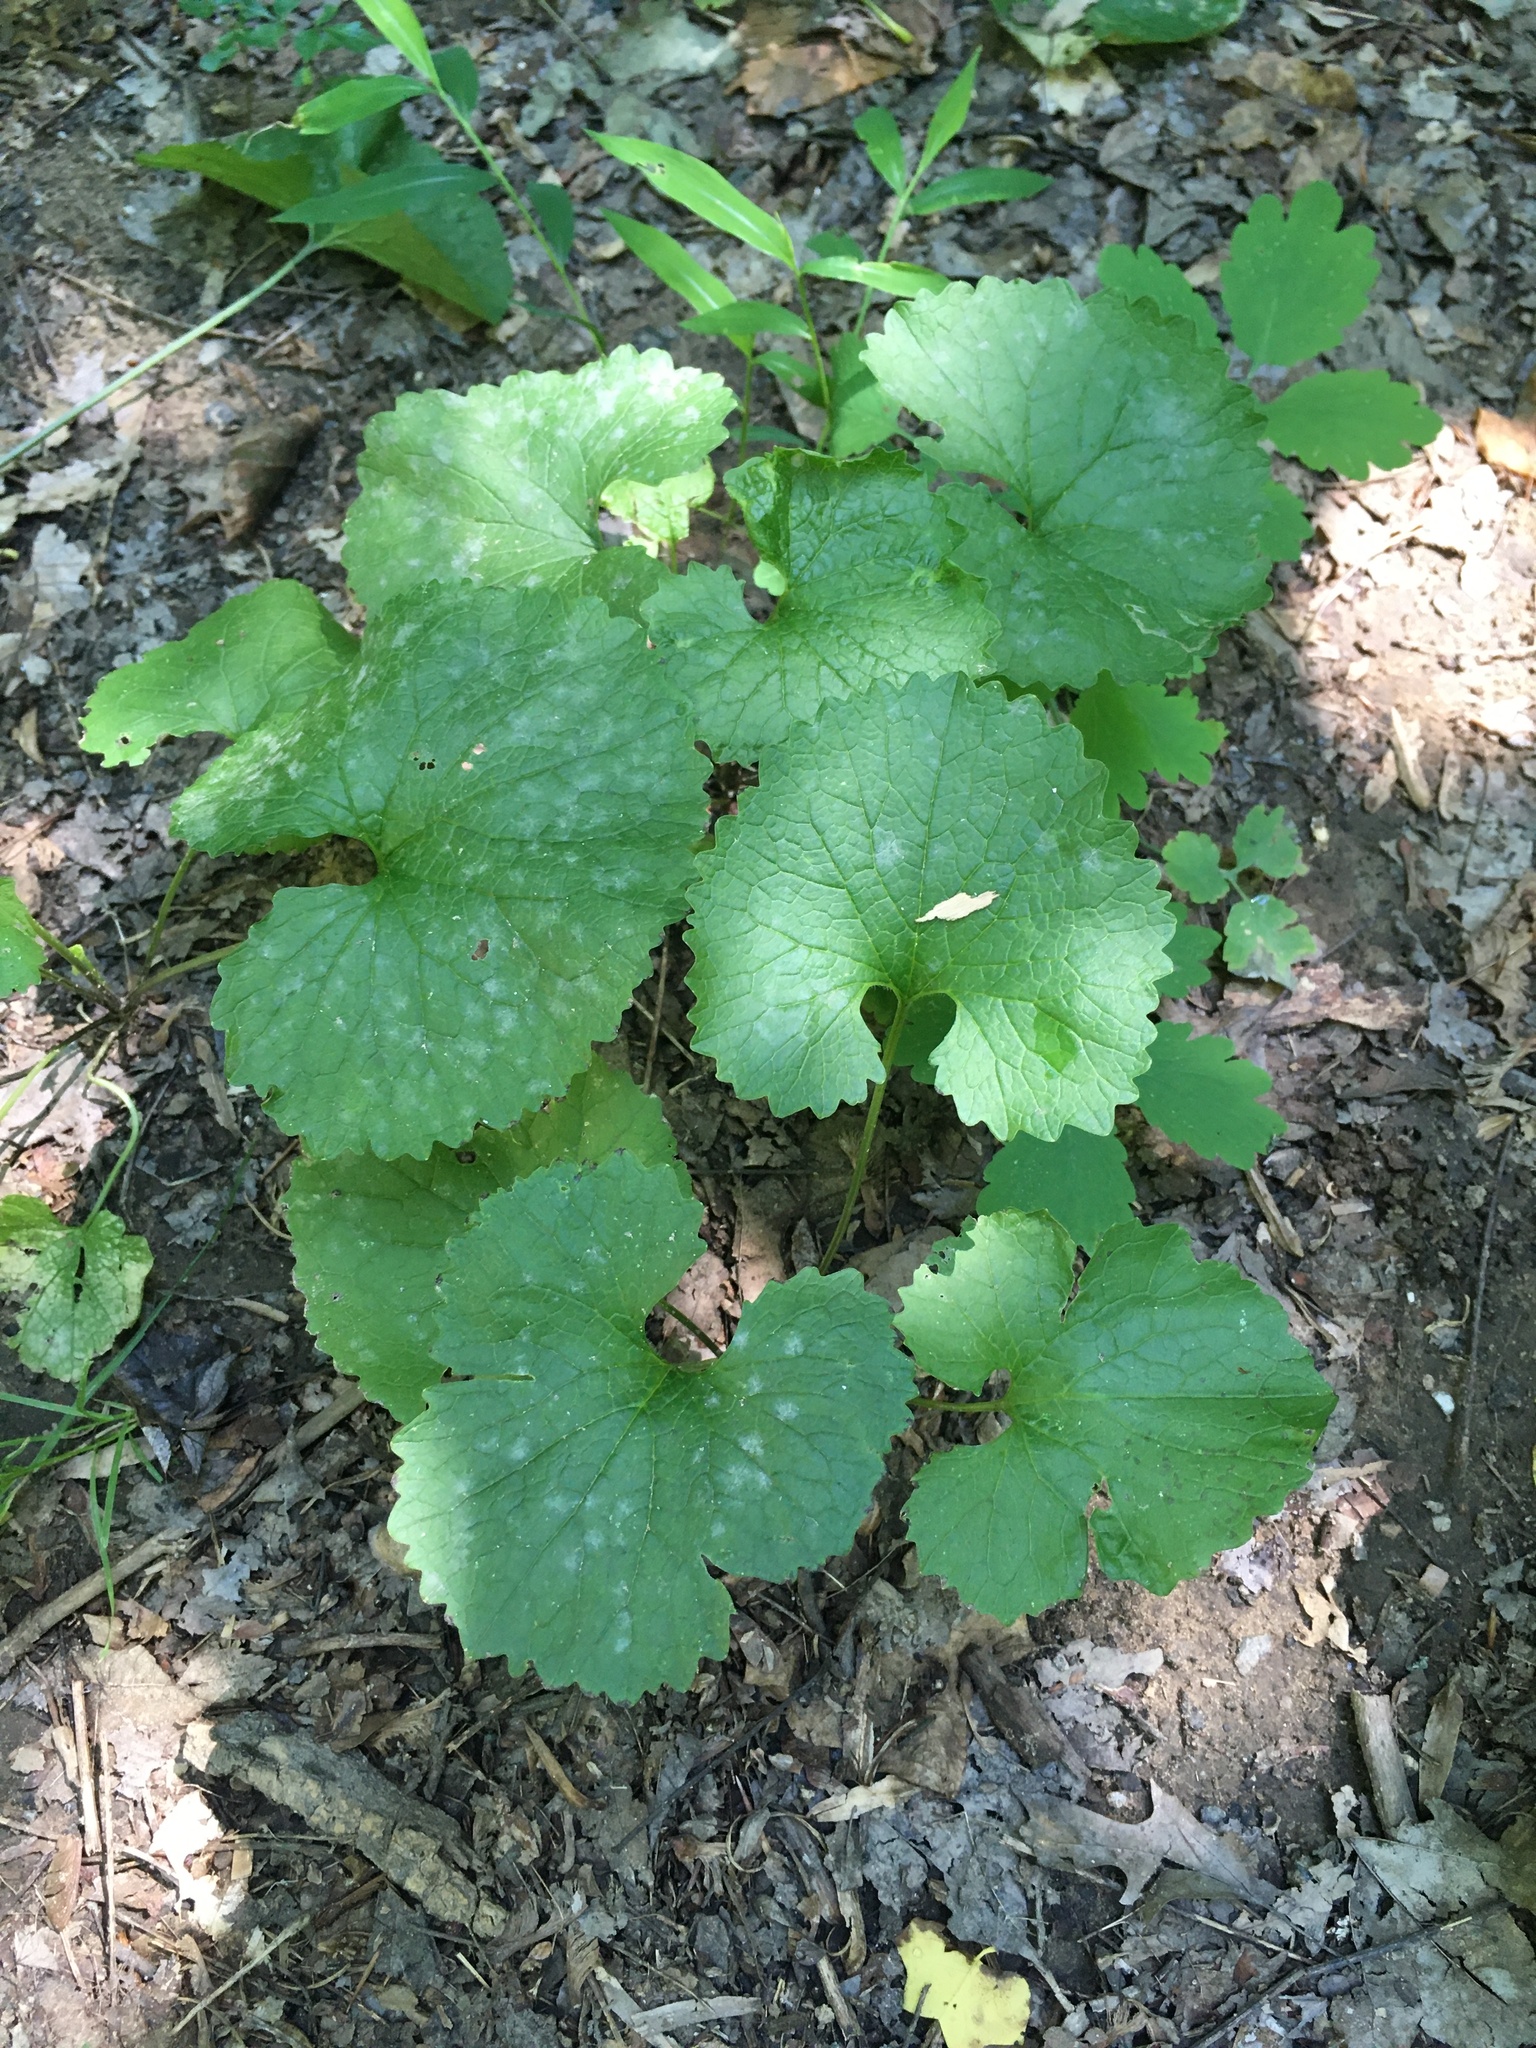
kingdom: Plantae
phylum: Tracheophyta
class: Magnoliopsida
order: Brassicales
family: Brassicaceae
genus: Alliaria
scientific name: Alliaria petiolata
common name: Garlic mustard
